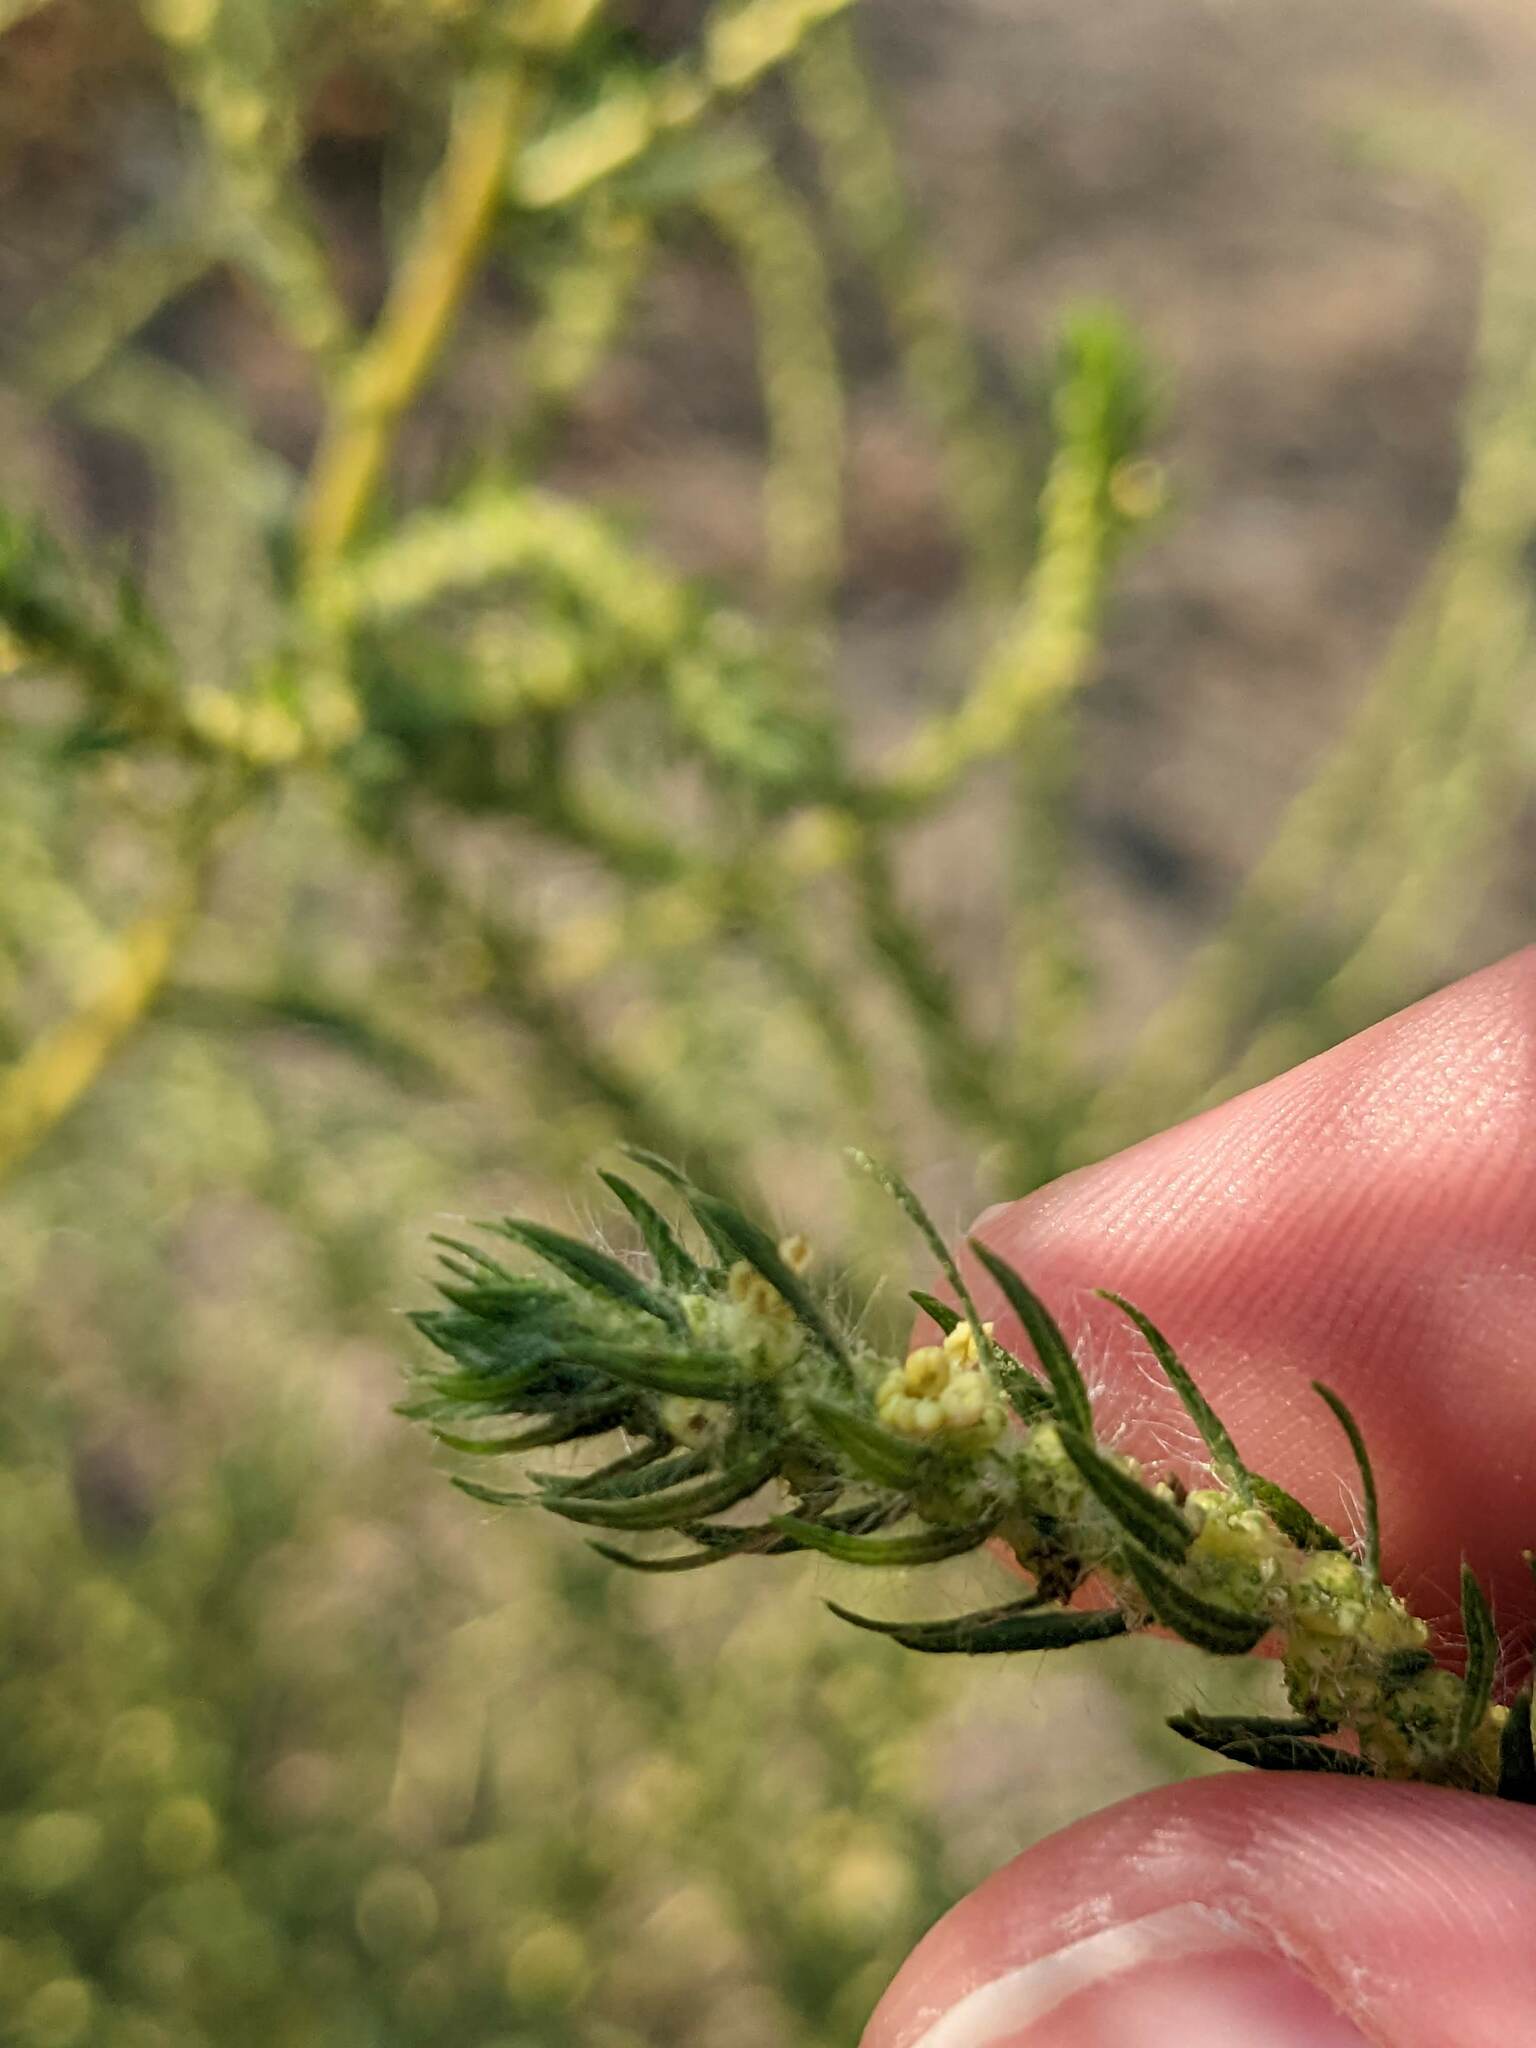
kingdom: Plantae
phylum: Tracheophyta
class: Magnoliopsida
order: Caryophyllales
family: Amaranthaceae
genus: Bassia
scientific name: Bassia scoparia
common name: Belvedere
